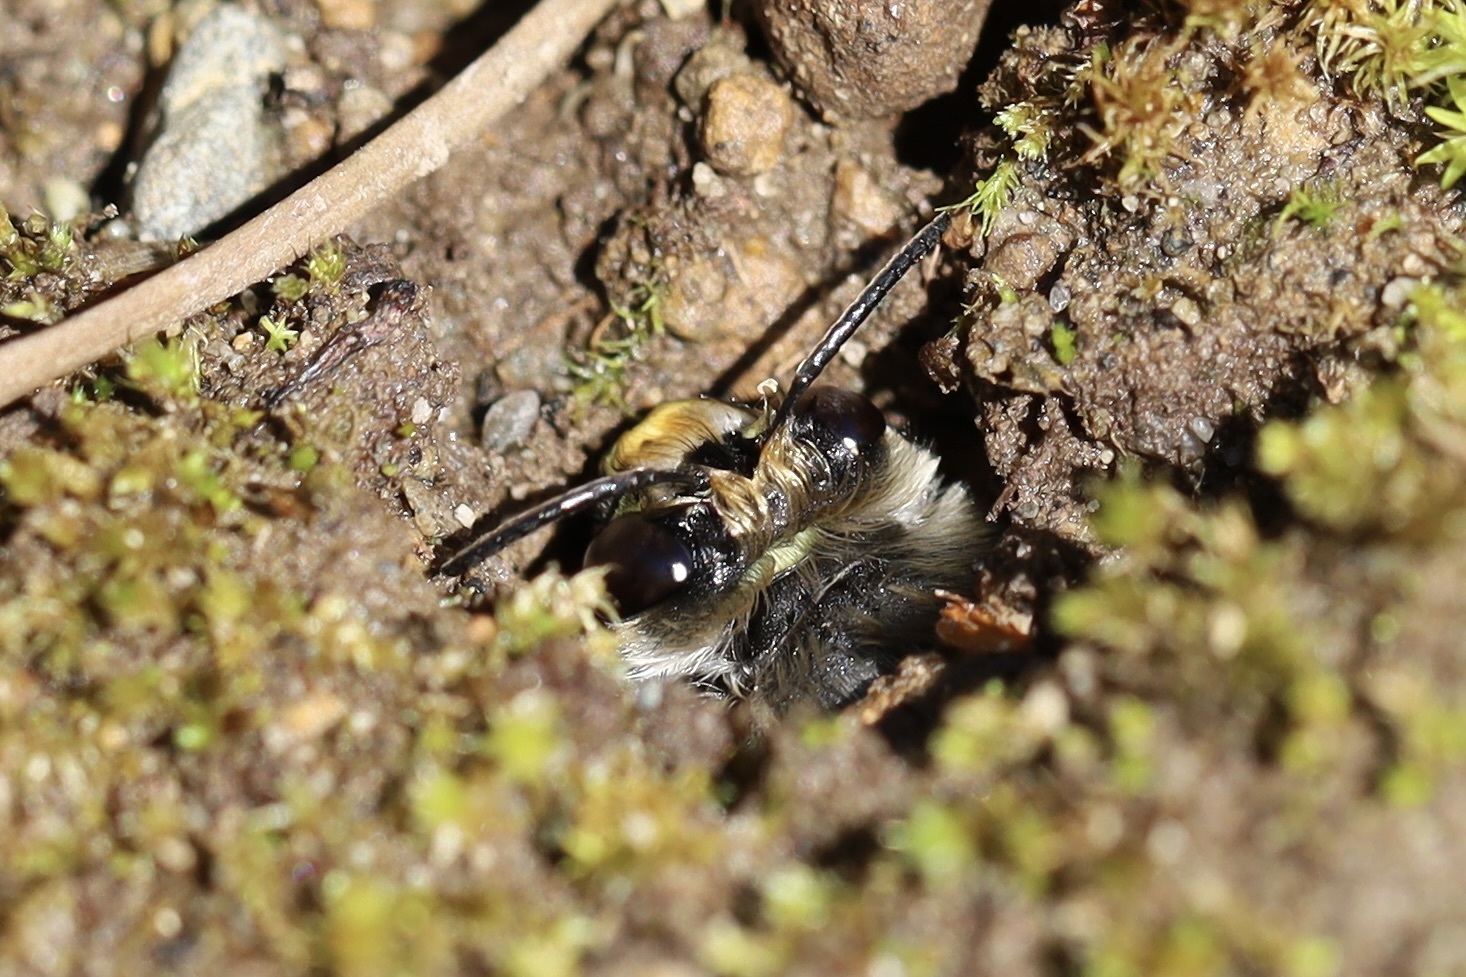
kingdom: Animalia
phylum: Arthropoda
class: Insecta
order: Hymenoptera
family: Apidae
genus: Anthophora
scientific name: Anthophora pacifica
